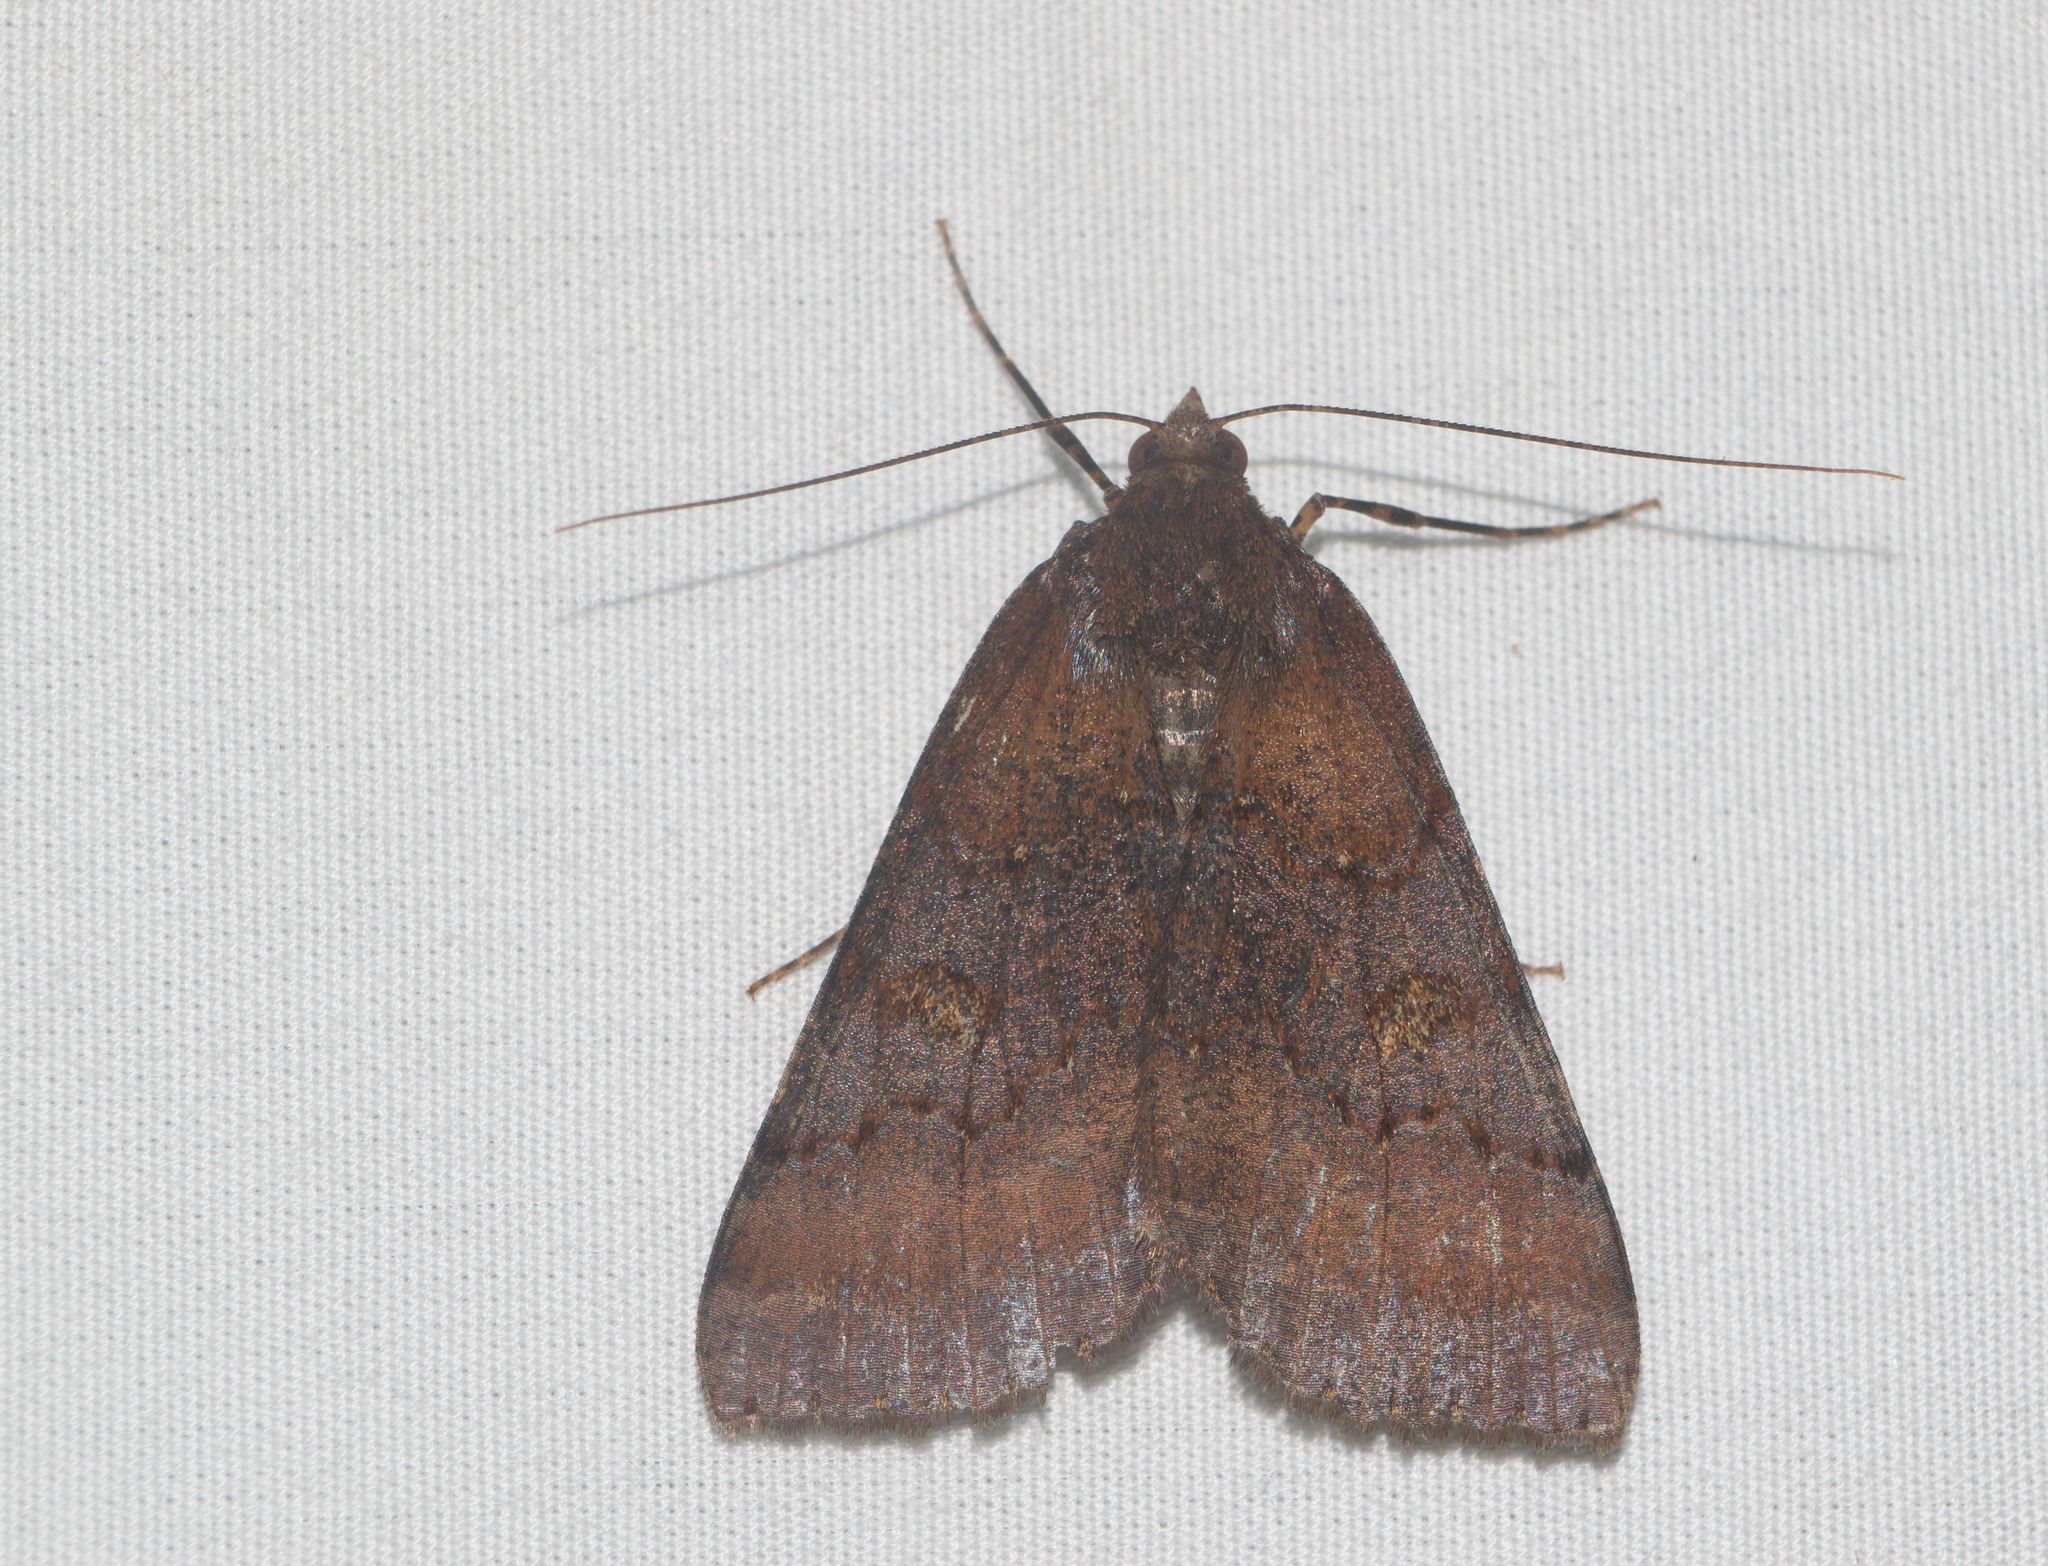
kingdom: Animalia
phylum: Arthropoda
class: Insecta
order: Lepidoptera
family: Geometridae
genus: Scotorythra
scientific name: Scotorythra rara
